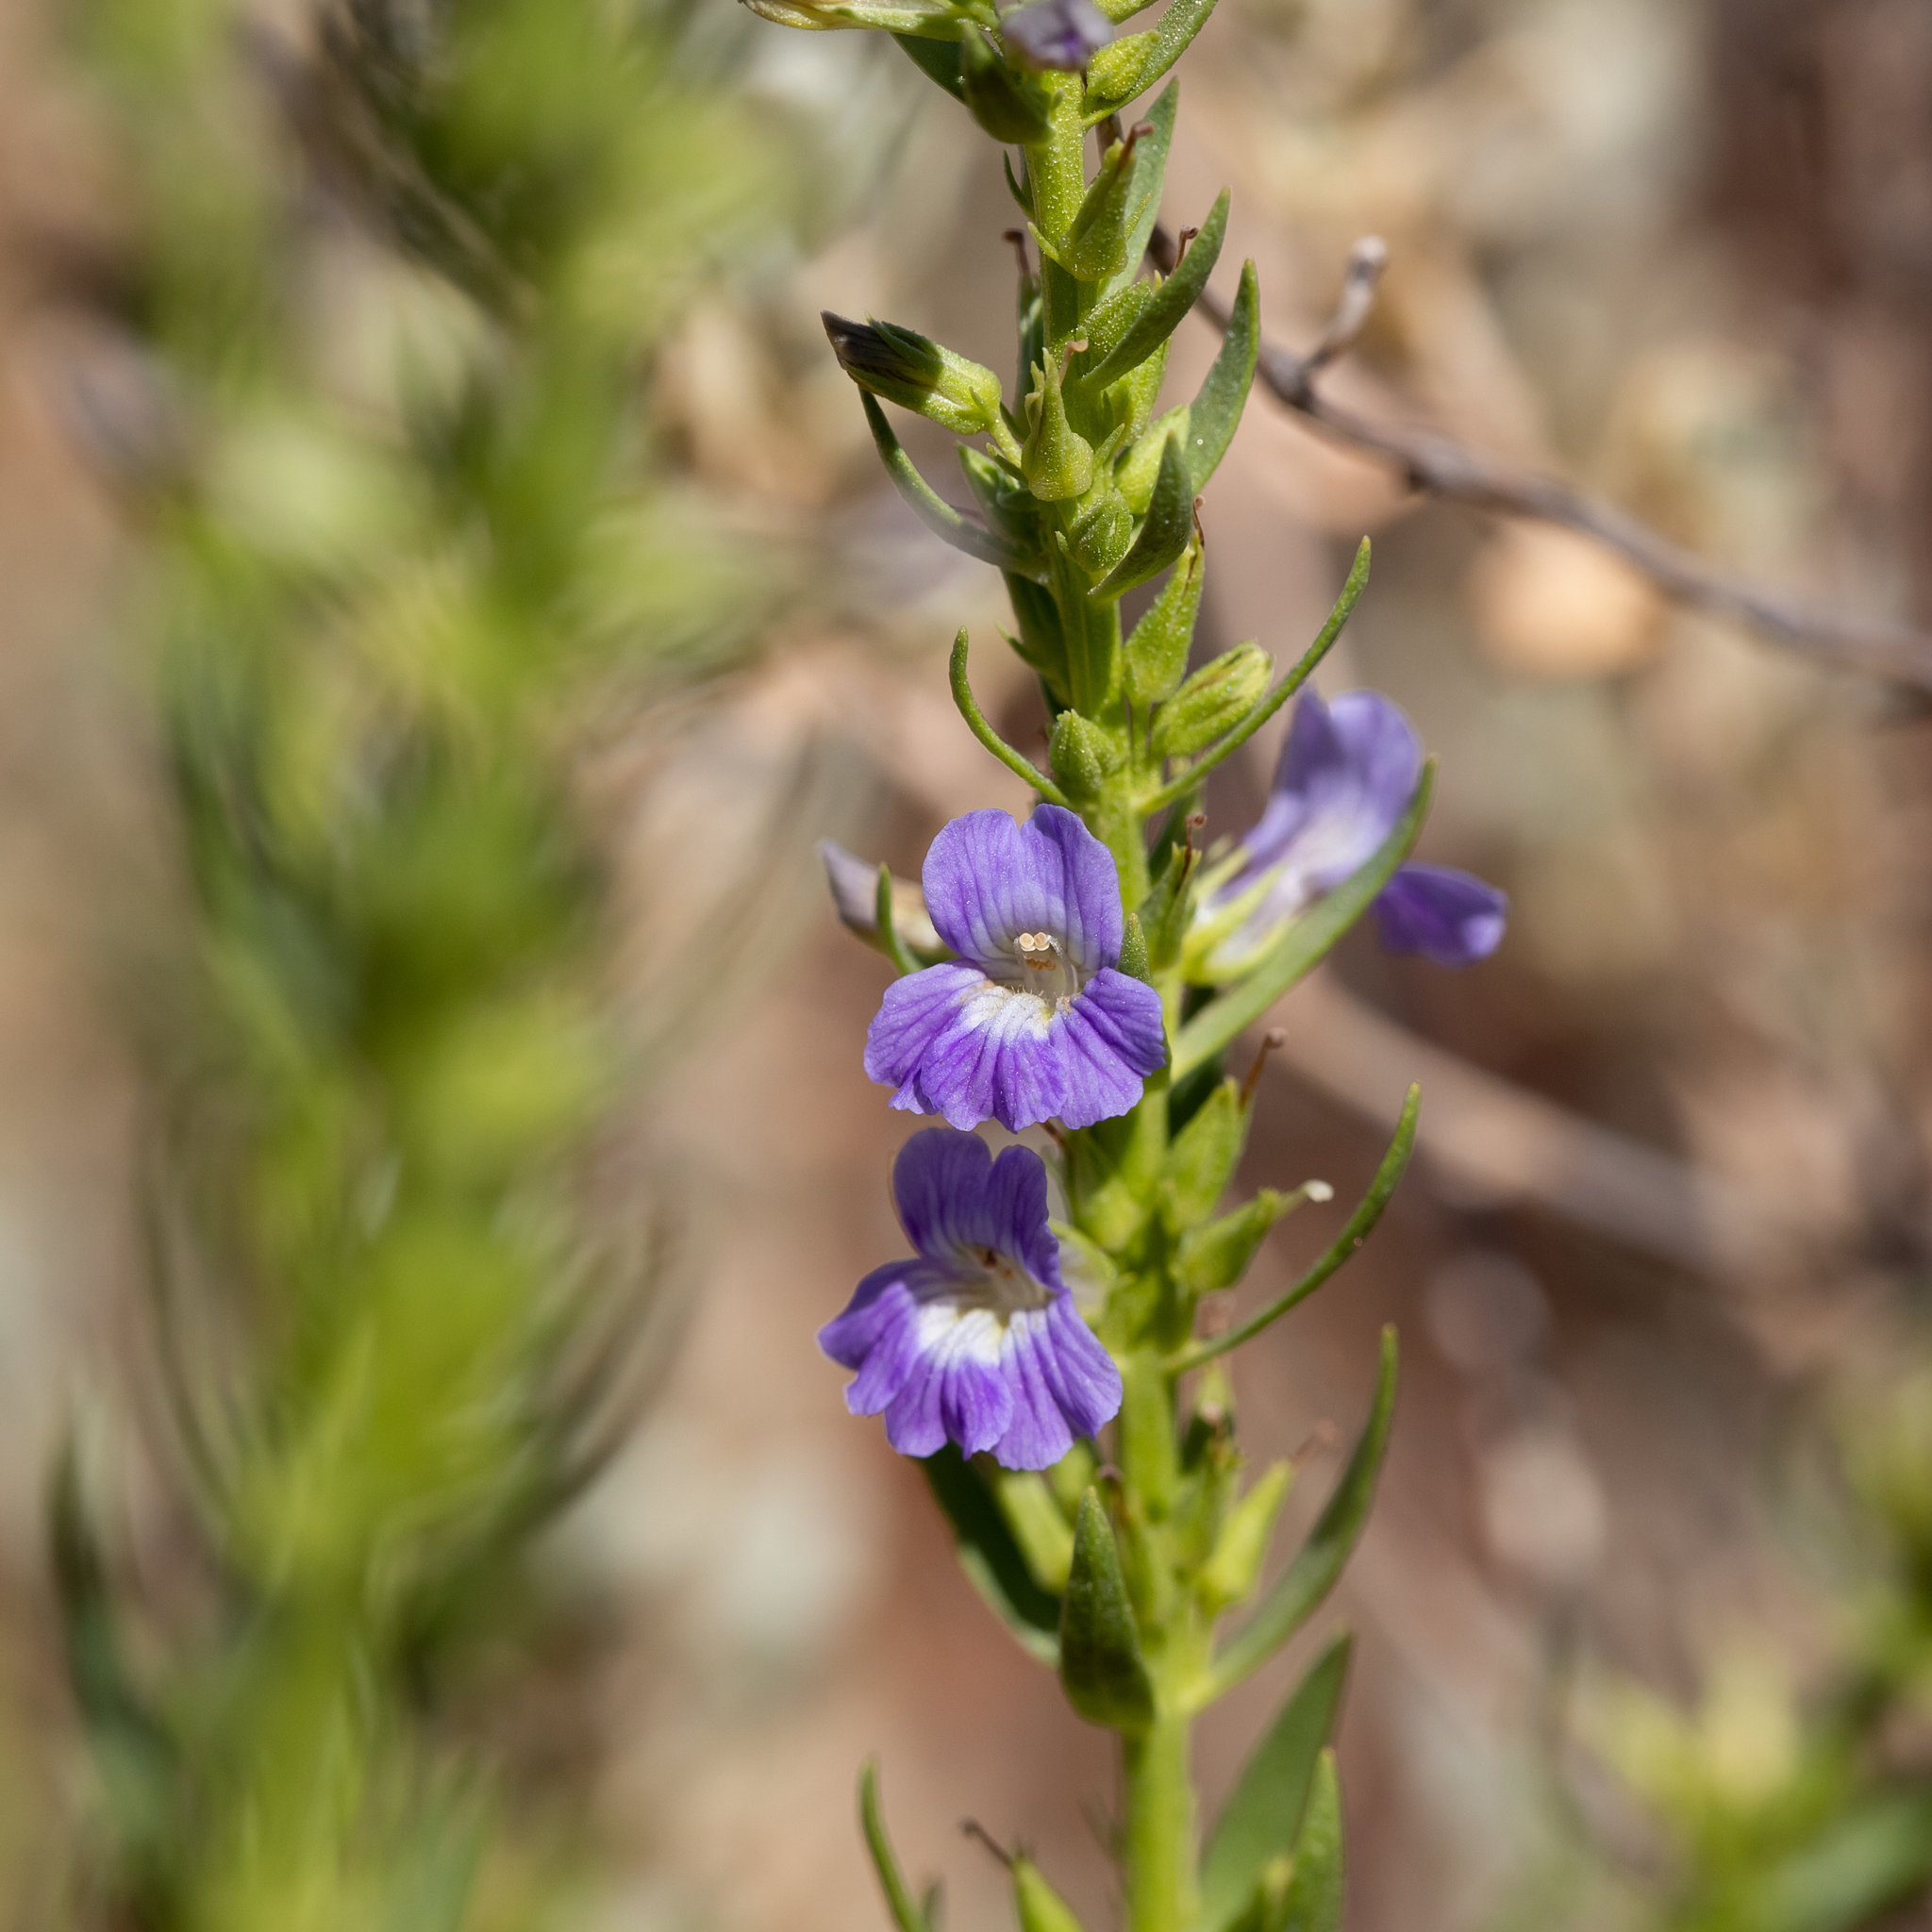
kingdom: Plantae
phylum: Tracheophyta
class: Magnoliopsida
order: Lamiales
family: Plantaginaceae
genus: Stemodia
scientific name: Stemodia florulenta
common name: Bluerod
